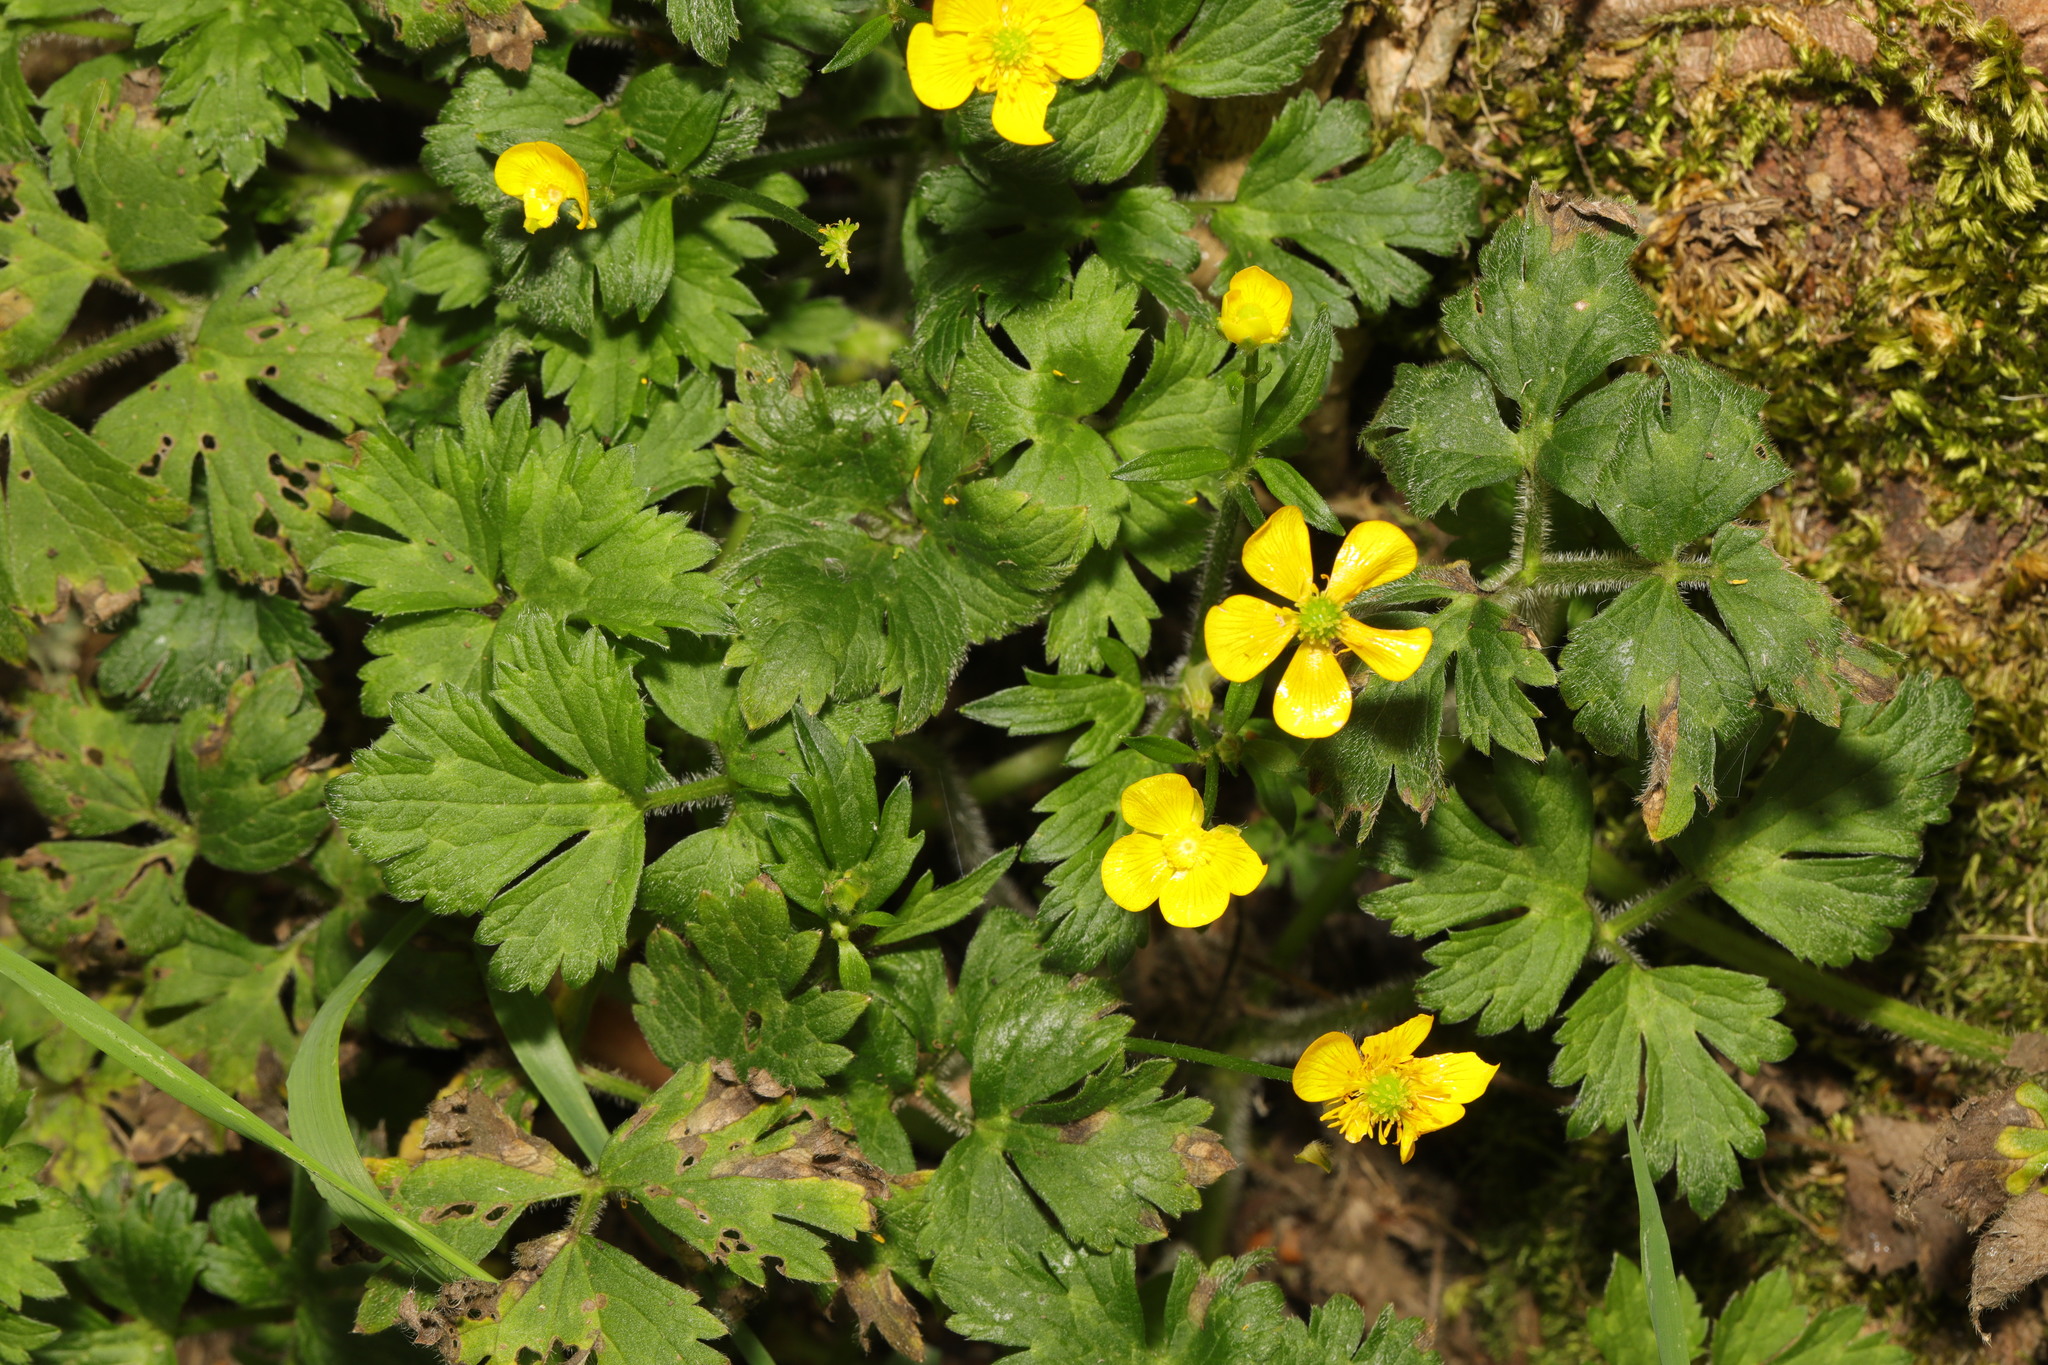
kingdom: Plantae
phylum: Tracheophyta
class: Magnoliopsida
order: Ranunculales
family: Ranunculaceae
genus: Ranunculus
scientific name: Ranunculus repens
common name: Creeping buttercup
